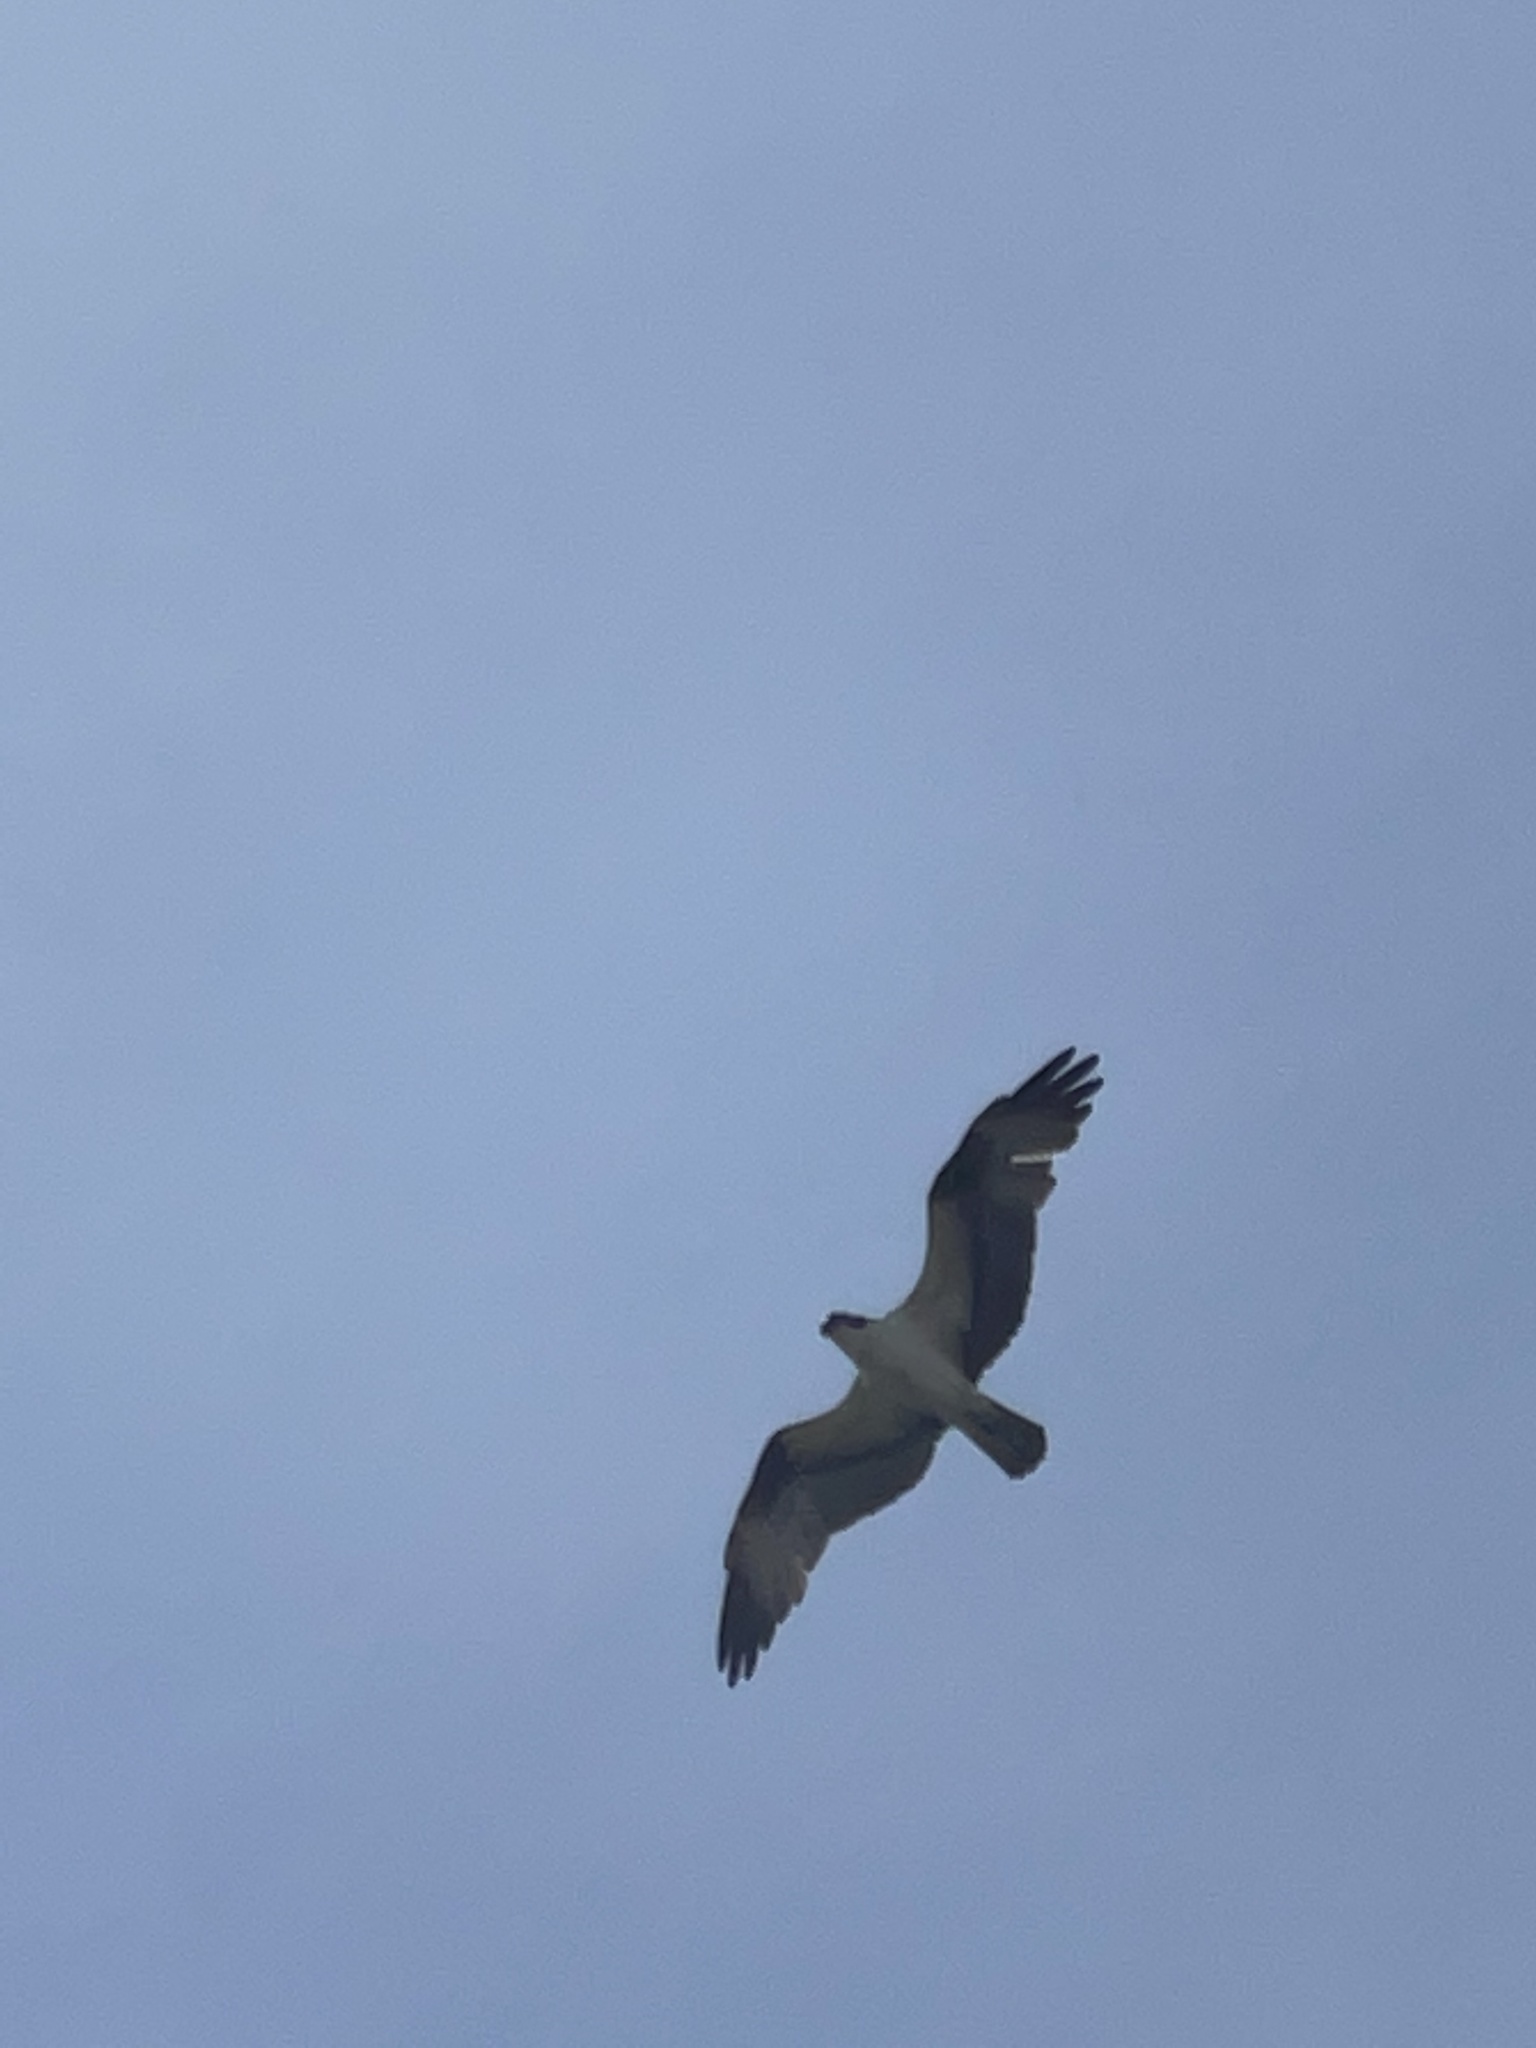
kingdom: Animalia
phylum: Chordata
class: Aves
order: Accipitriformes
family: Pandionidae
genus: Pandion
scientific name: Pandion haliaetus
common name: Osprey
